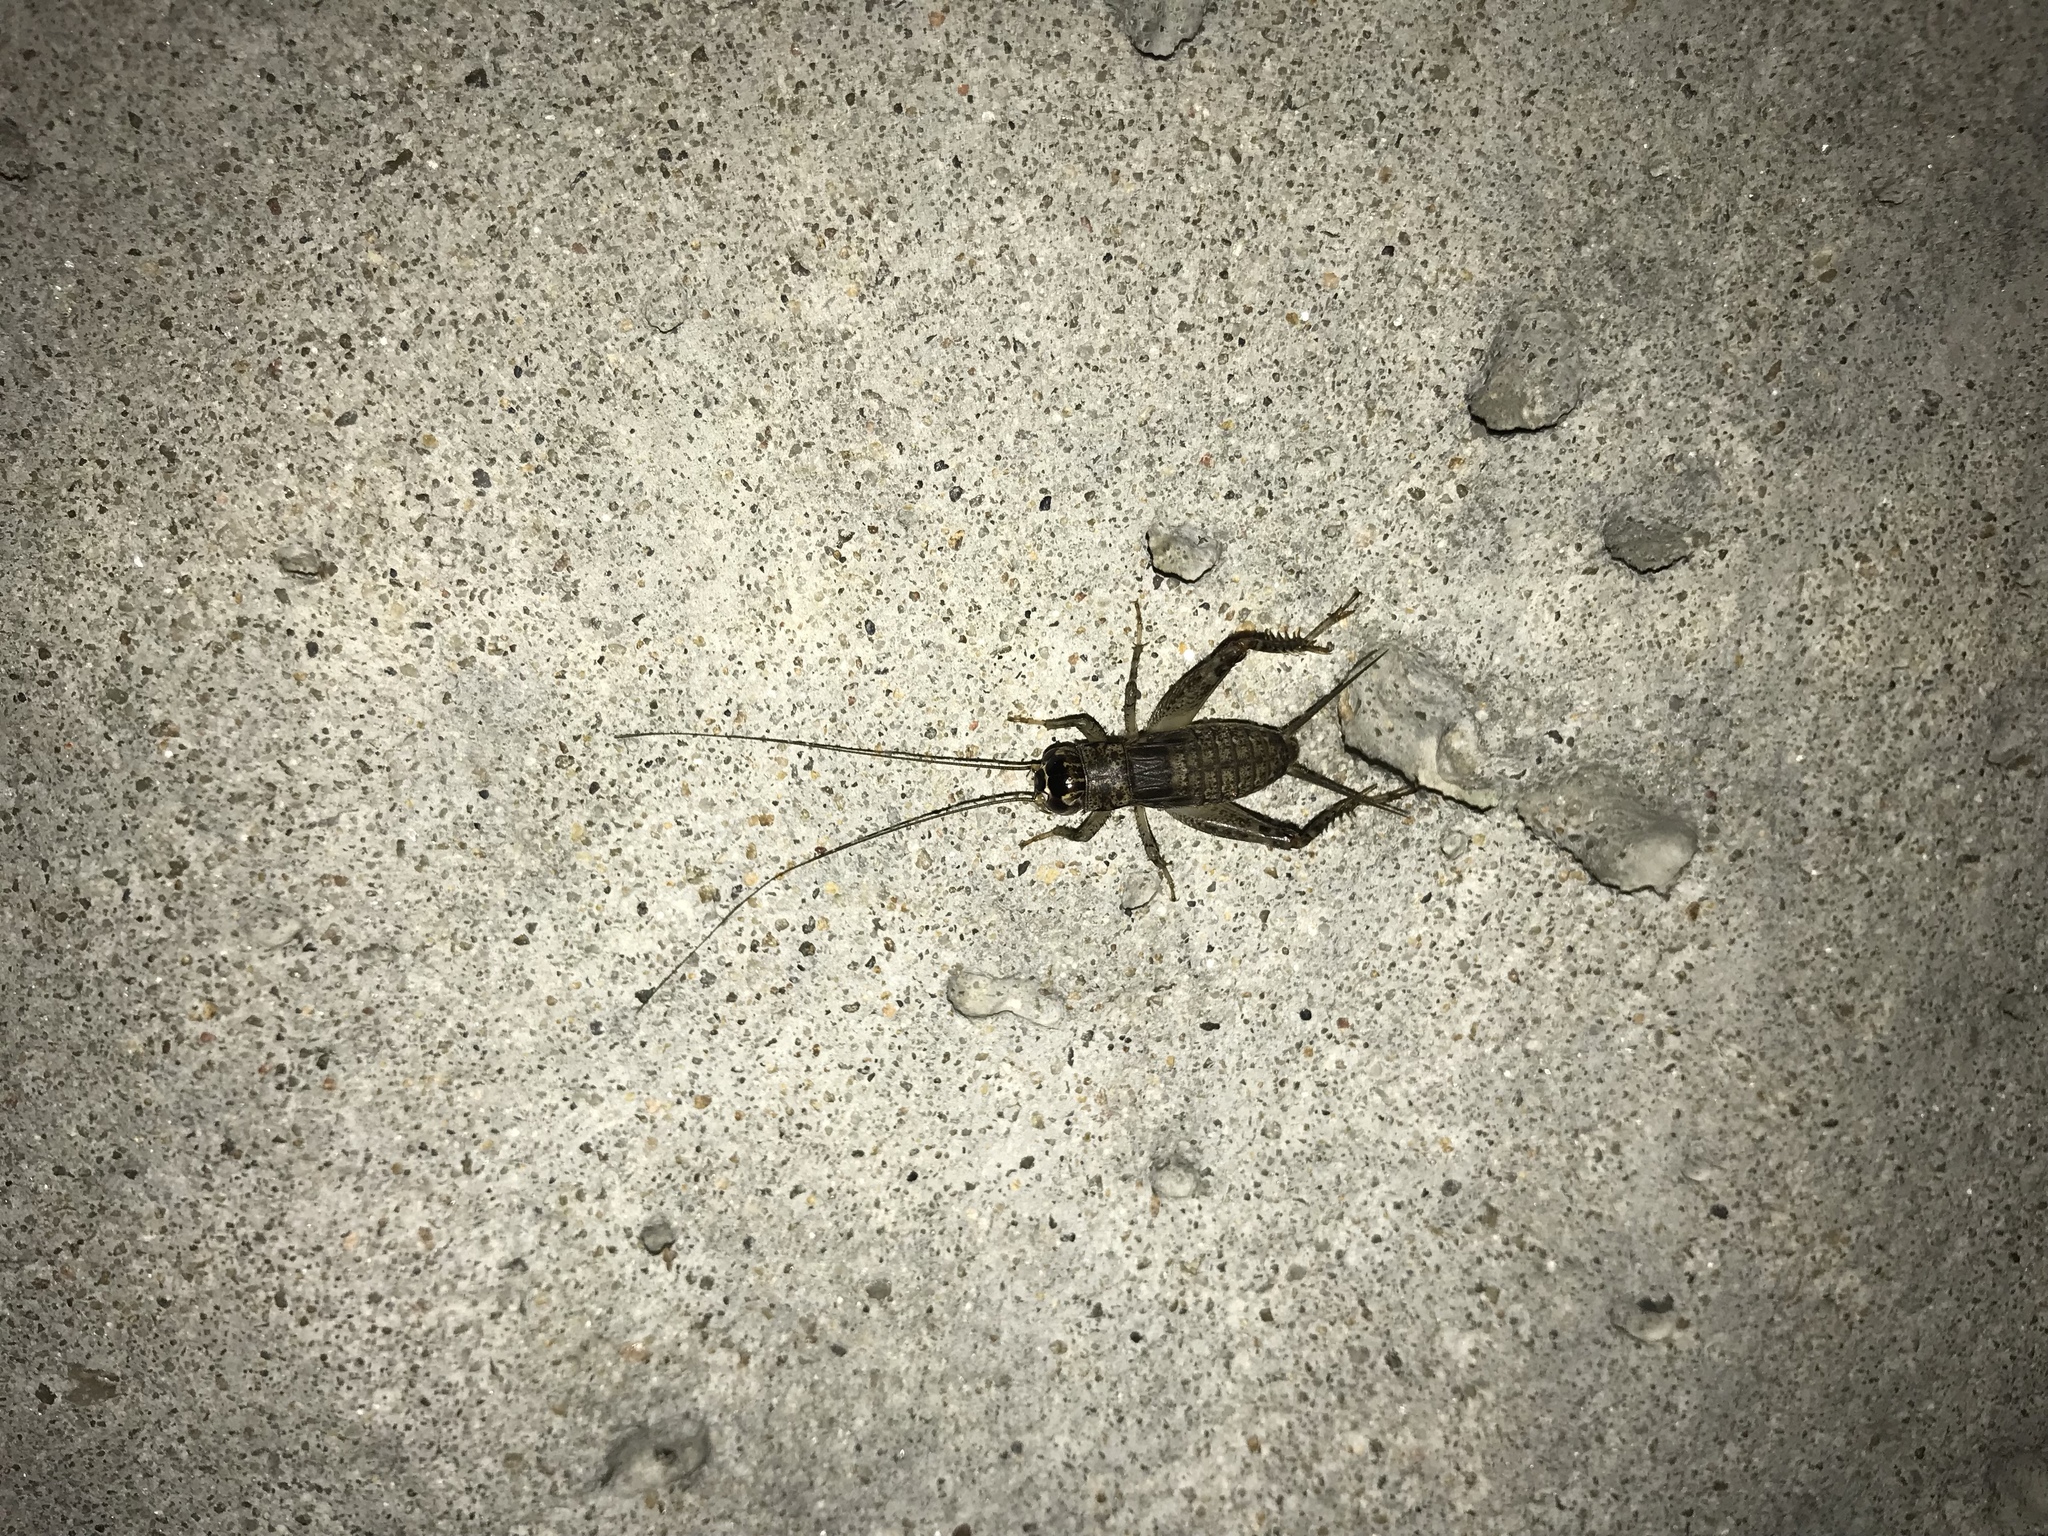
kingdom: Animalia
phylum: Arthropoda
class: Insecta
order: Orthoptera
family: Gryllidae
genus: Velarifictorus
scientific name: Velarifictorus micado
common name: Japanese burrowing cricket
